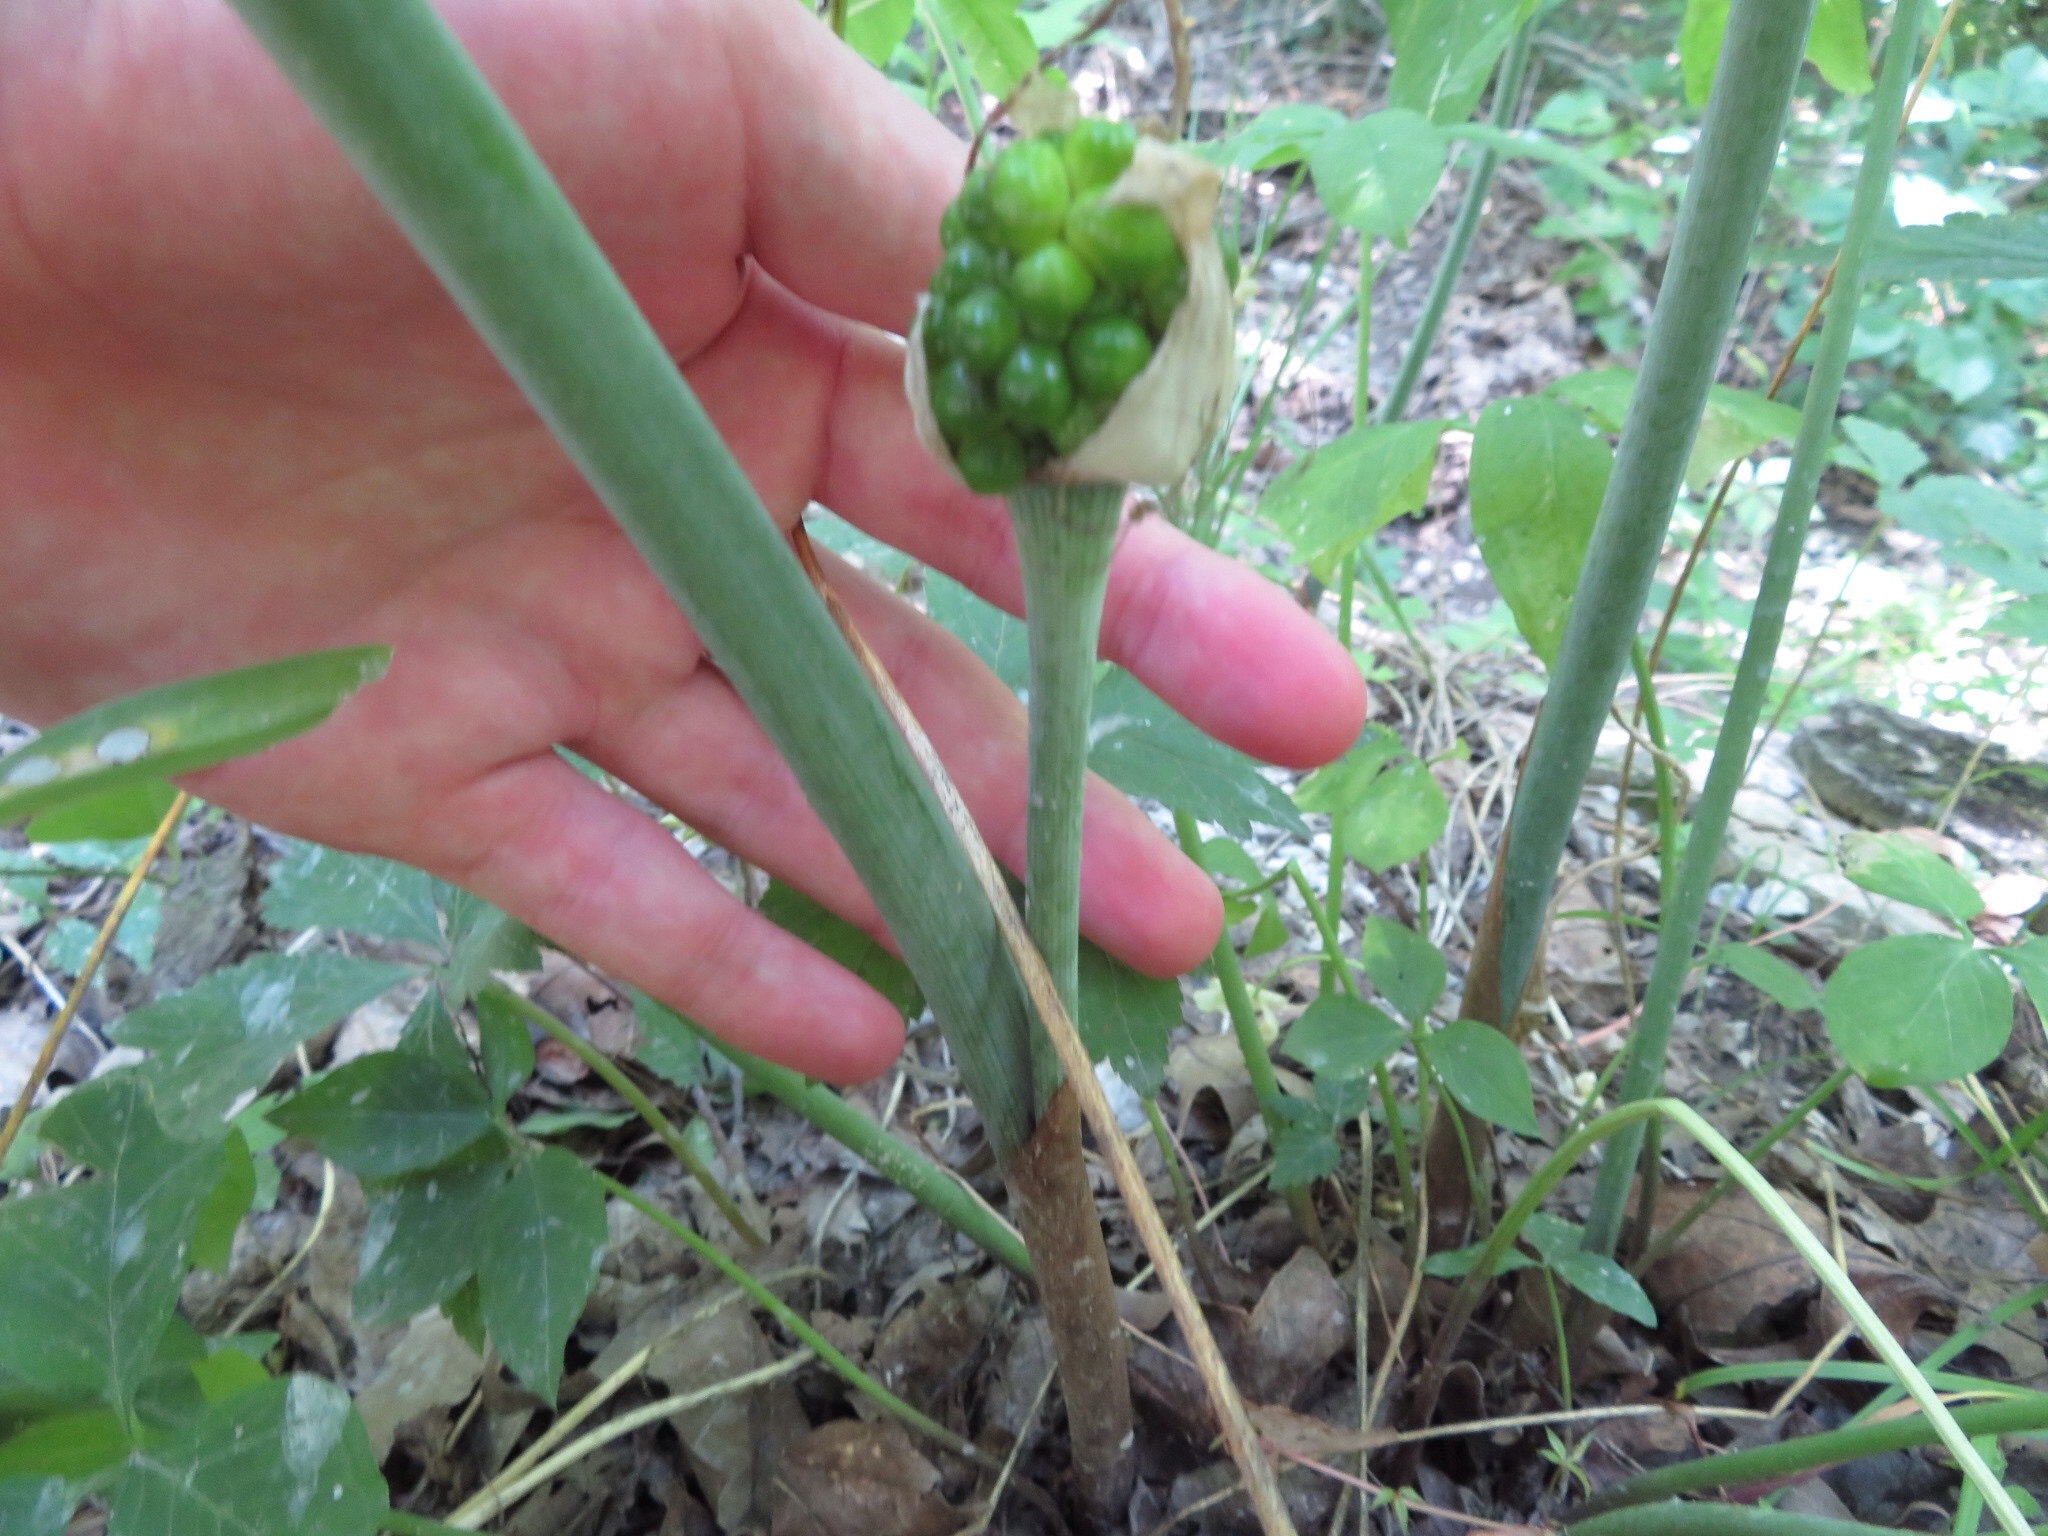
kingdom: Plantae
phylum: Tracheophyta
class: Liliopsida
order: Alismatales
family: Araceae
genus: Arisaema
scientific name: Arisaema dracontium
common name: Dragon-arum
